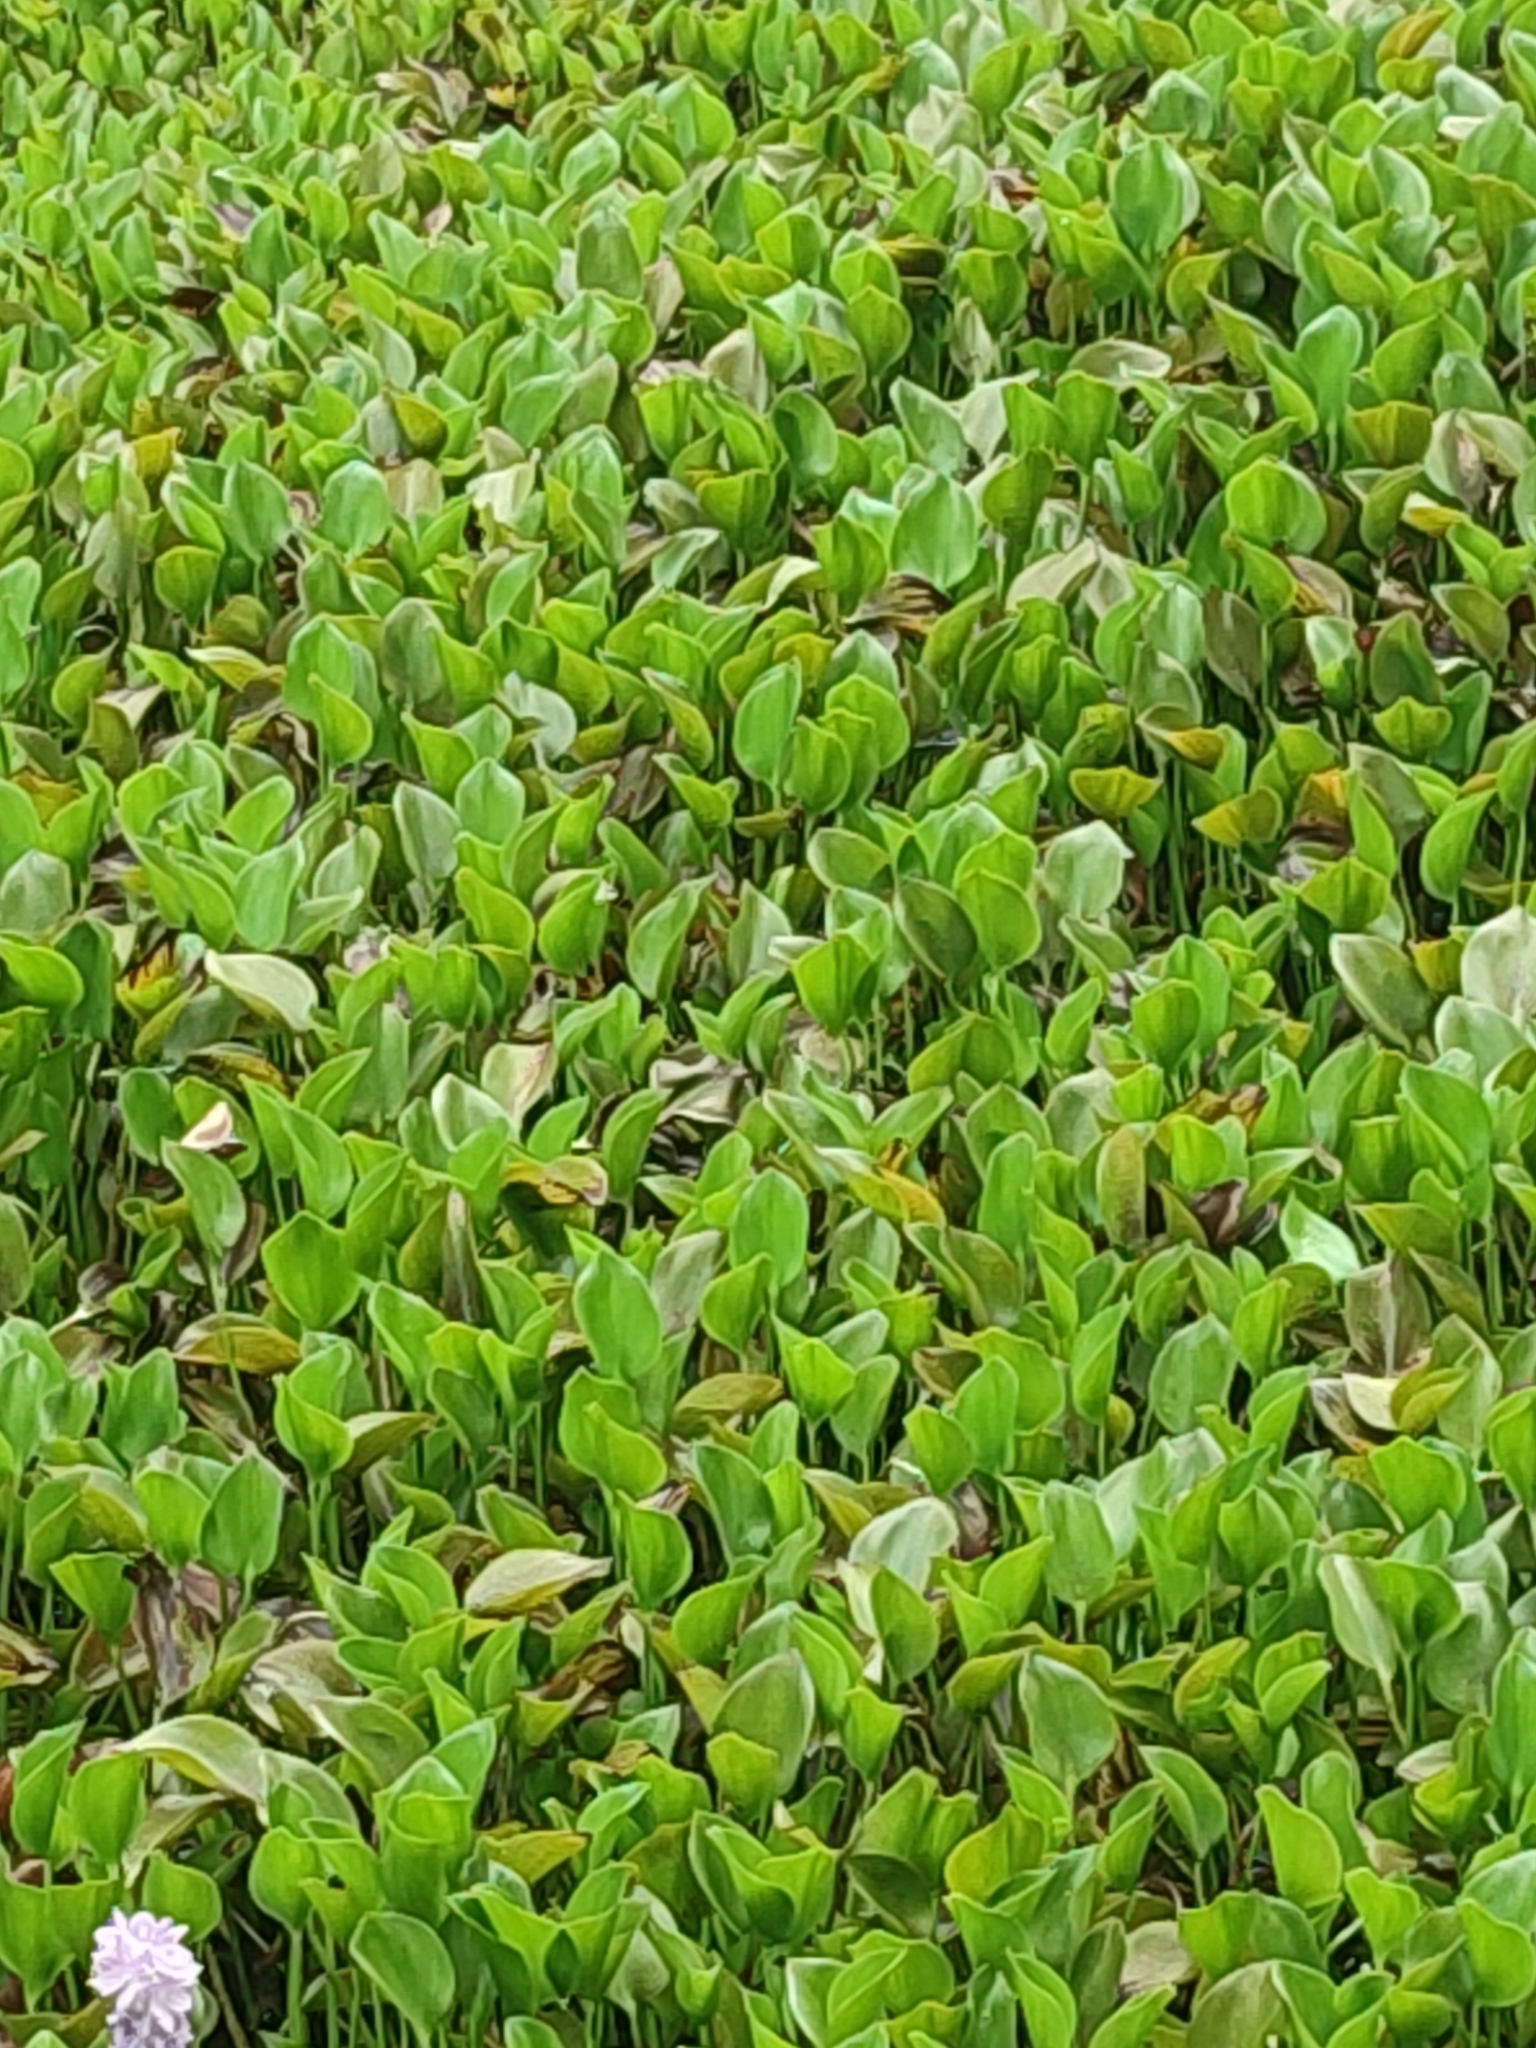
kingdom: Plantae
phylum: Tracheophyta
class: Liliopsida
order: Commelinales
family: Pontederiaceae
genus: Pontederia
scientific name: Pontederia crassipes
